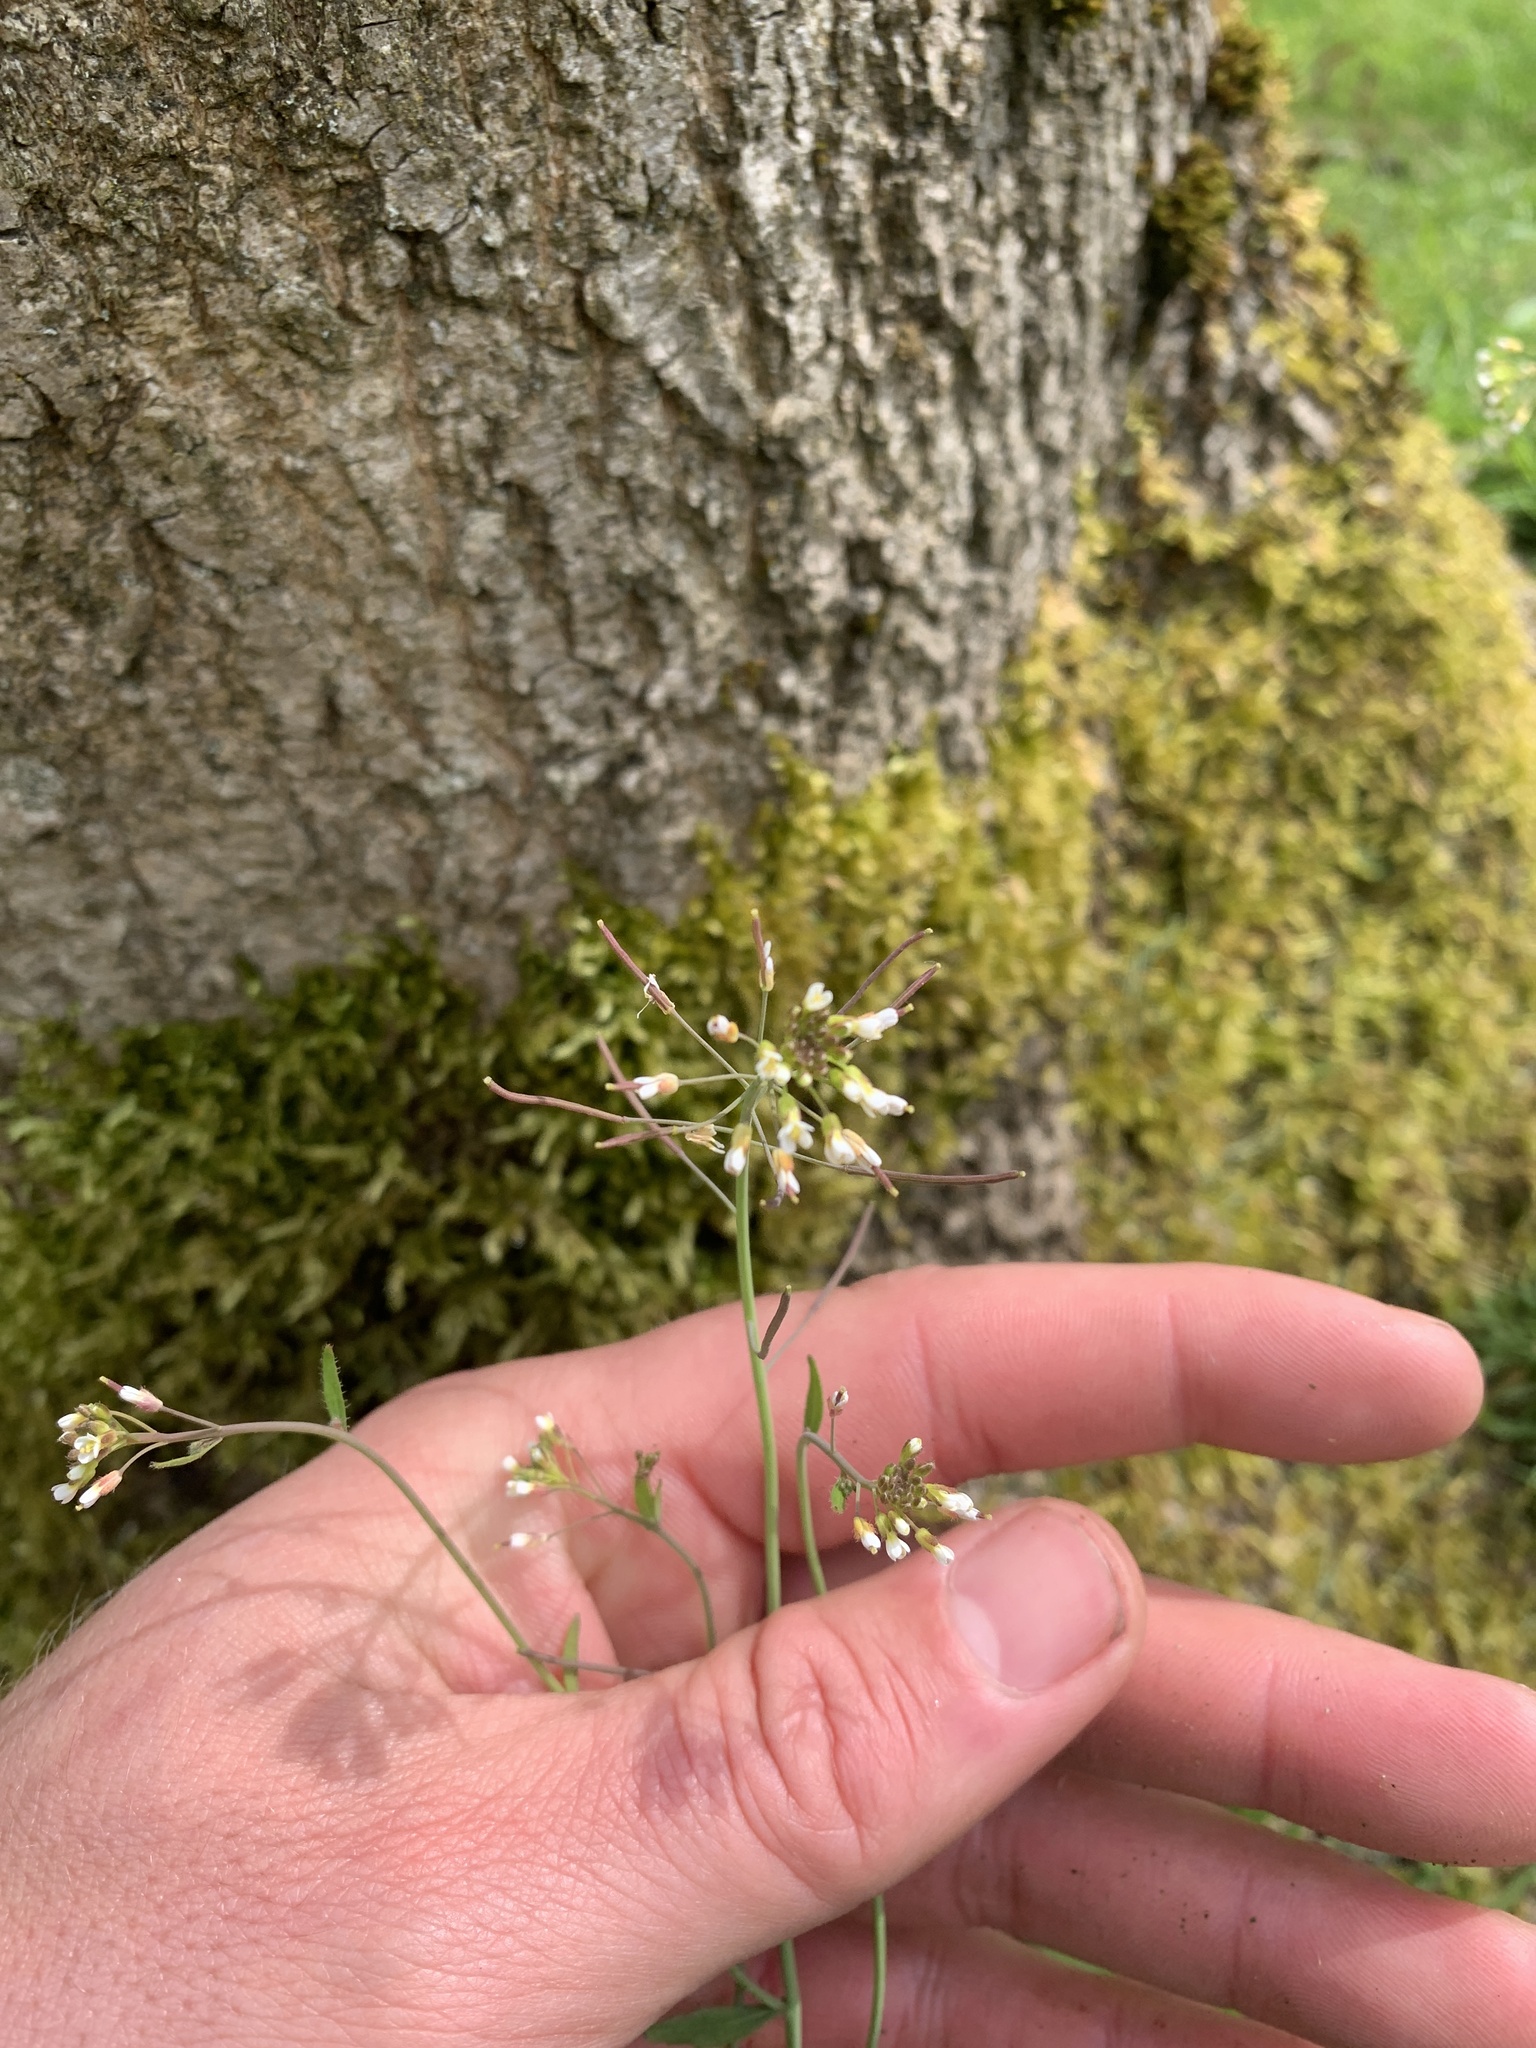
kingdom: Plantae
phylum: Tracheophyta
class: Magnoliopsida
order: Brassicales
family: Brassicaceae
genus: Arabidopsis
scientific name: Arabidopsis thaliana
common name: Thale cress
